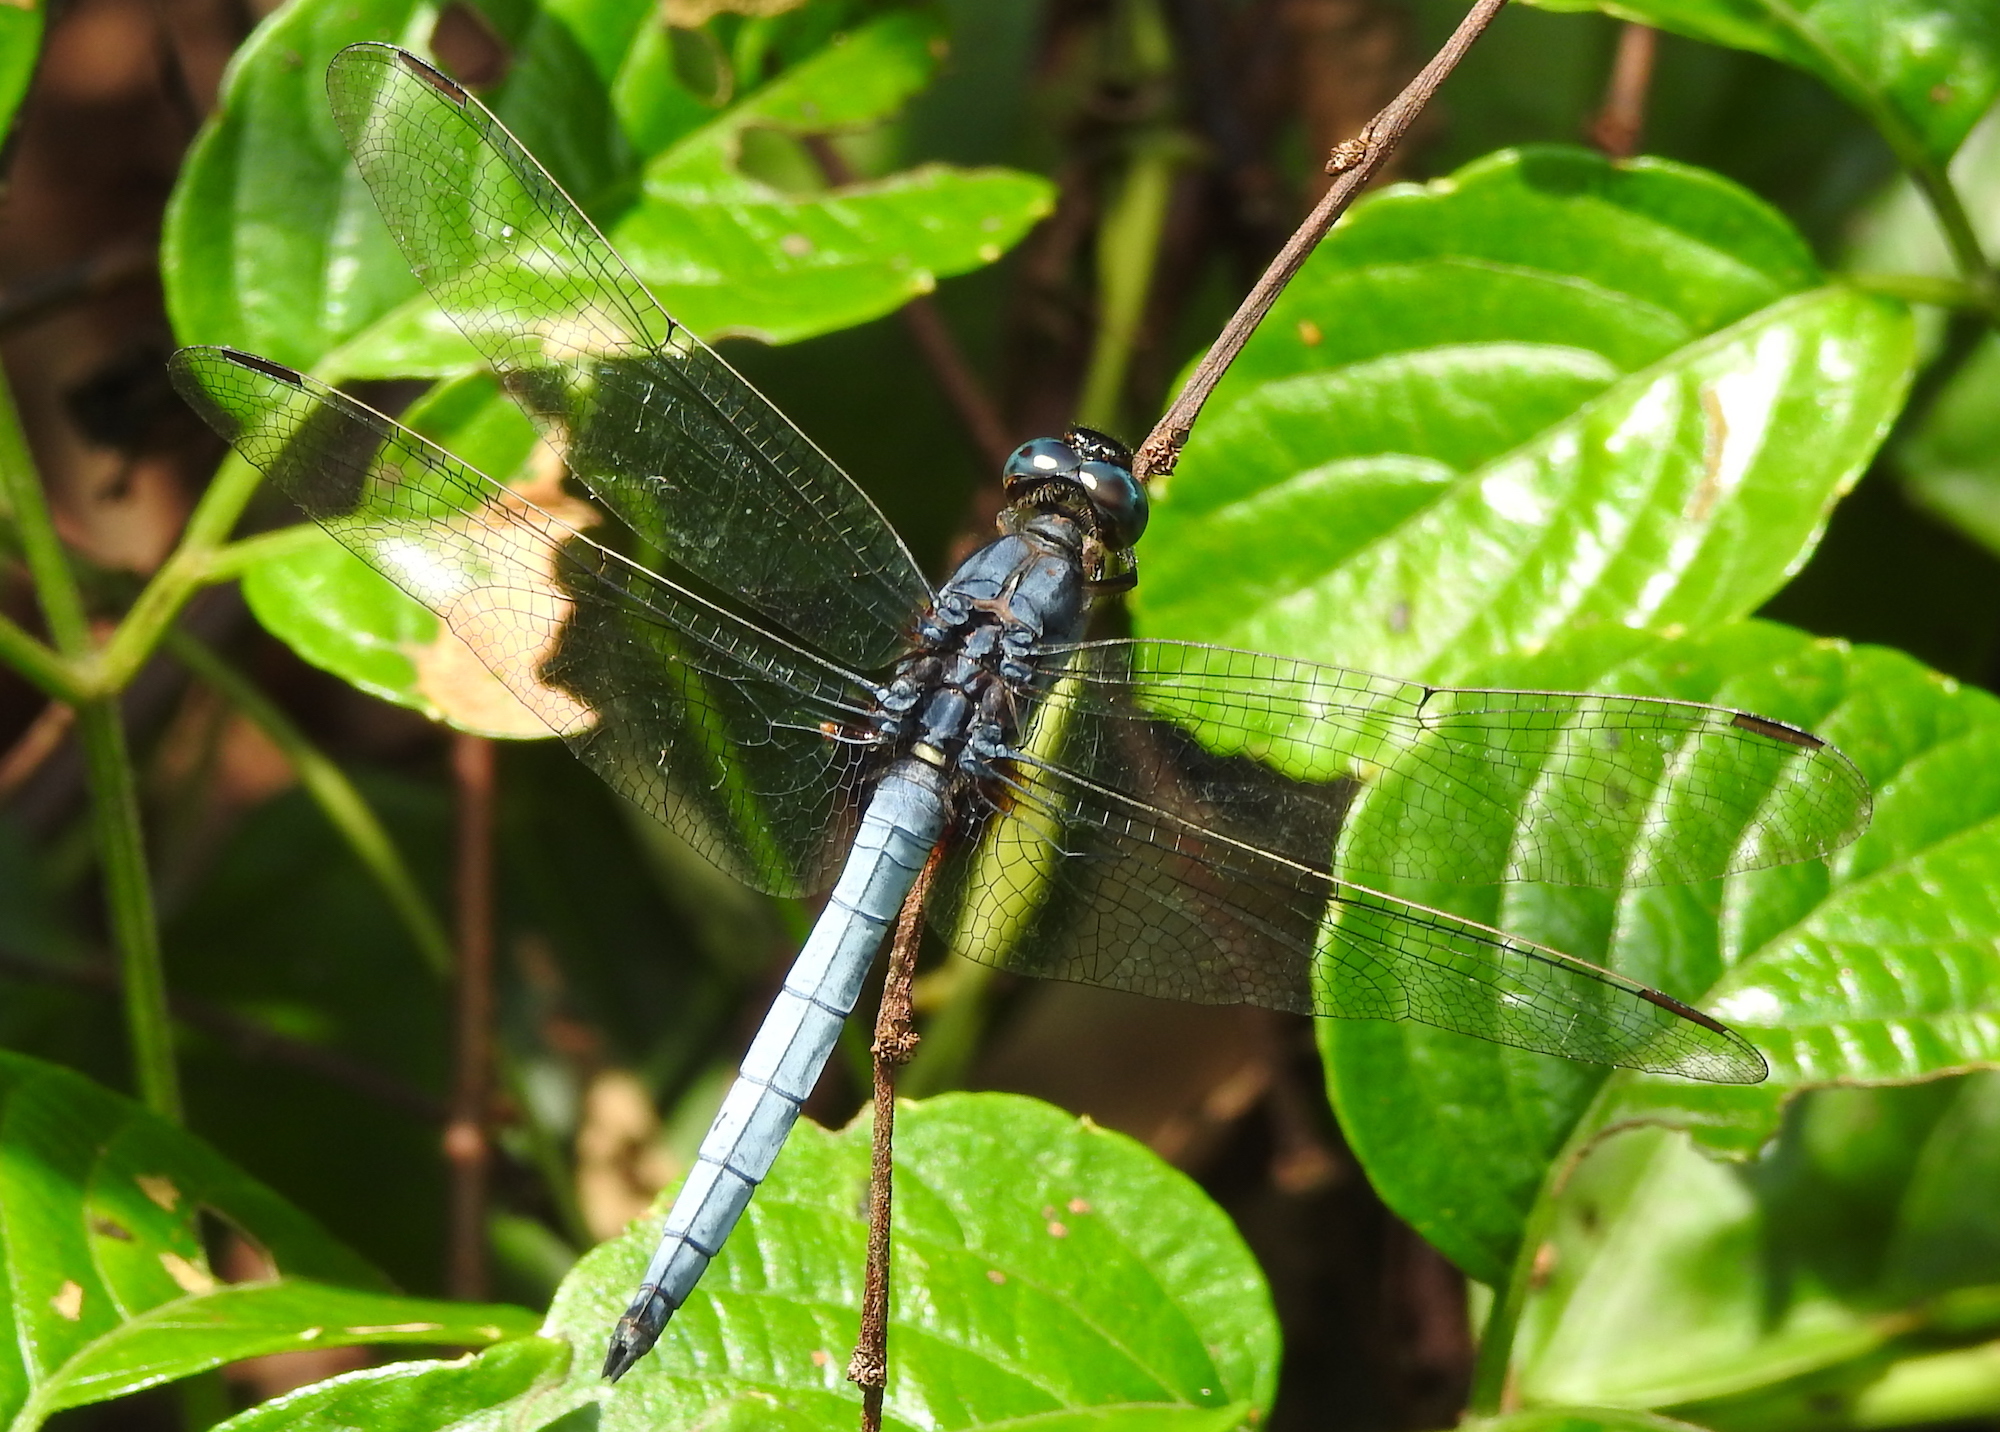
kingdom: Animalia
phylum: Arthropoda
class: Insecta
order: Odonata
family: Libellulidae
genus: Orthetrum
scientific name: Orthetrum glaucum
